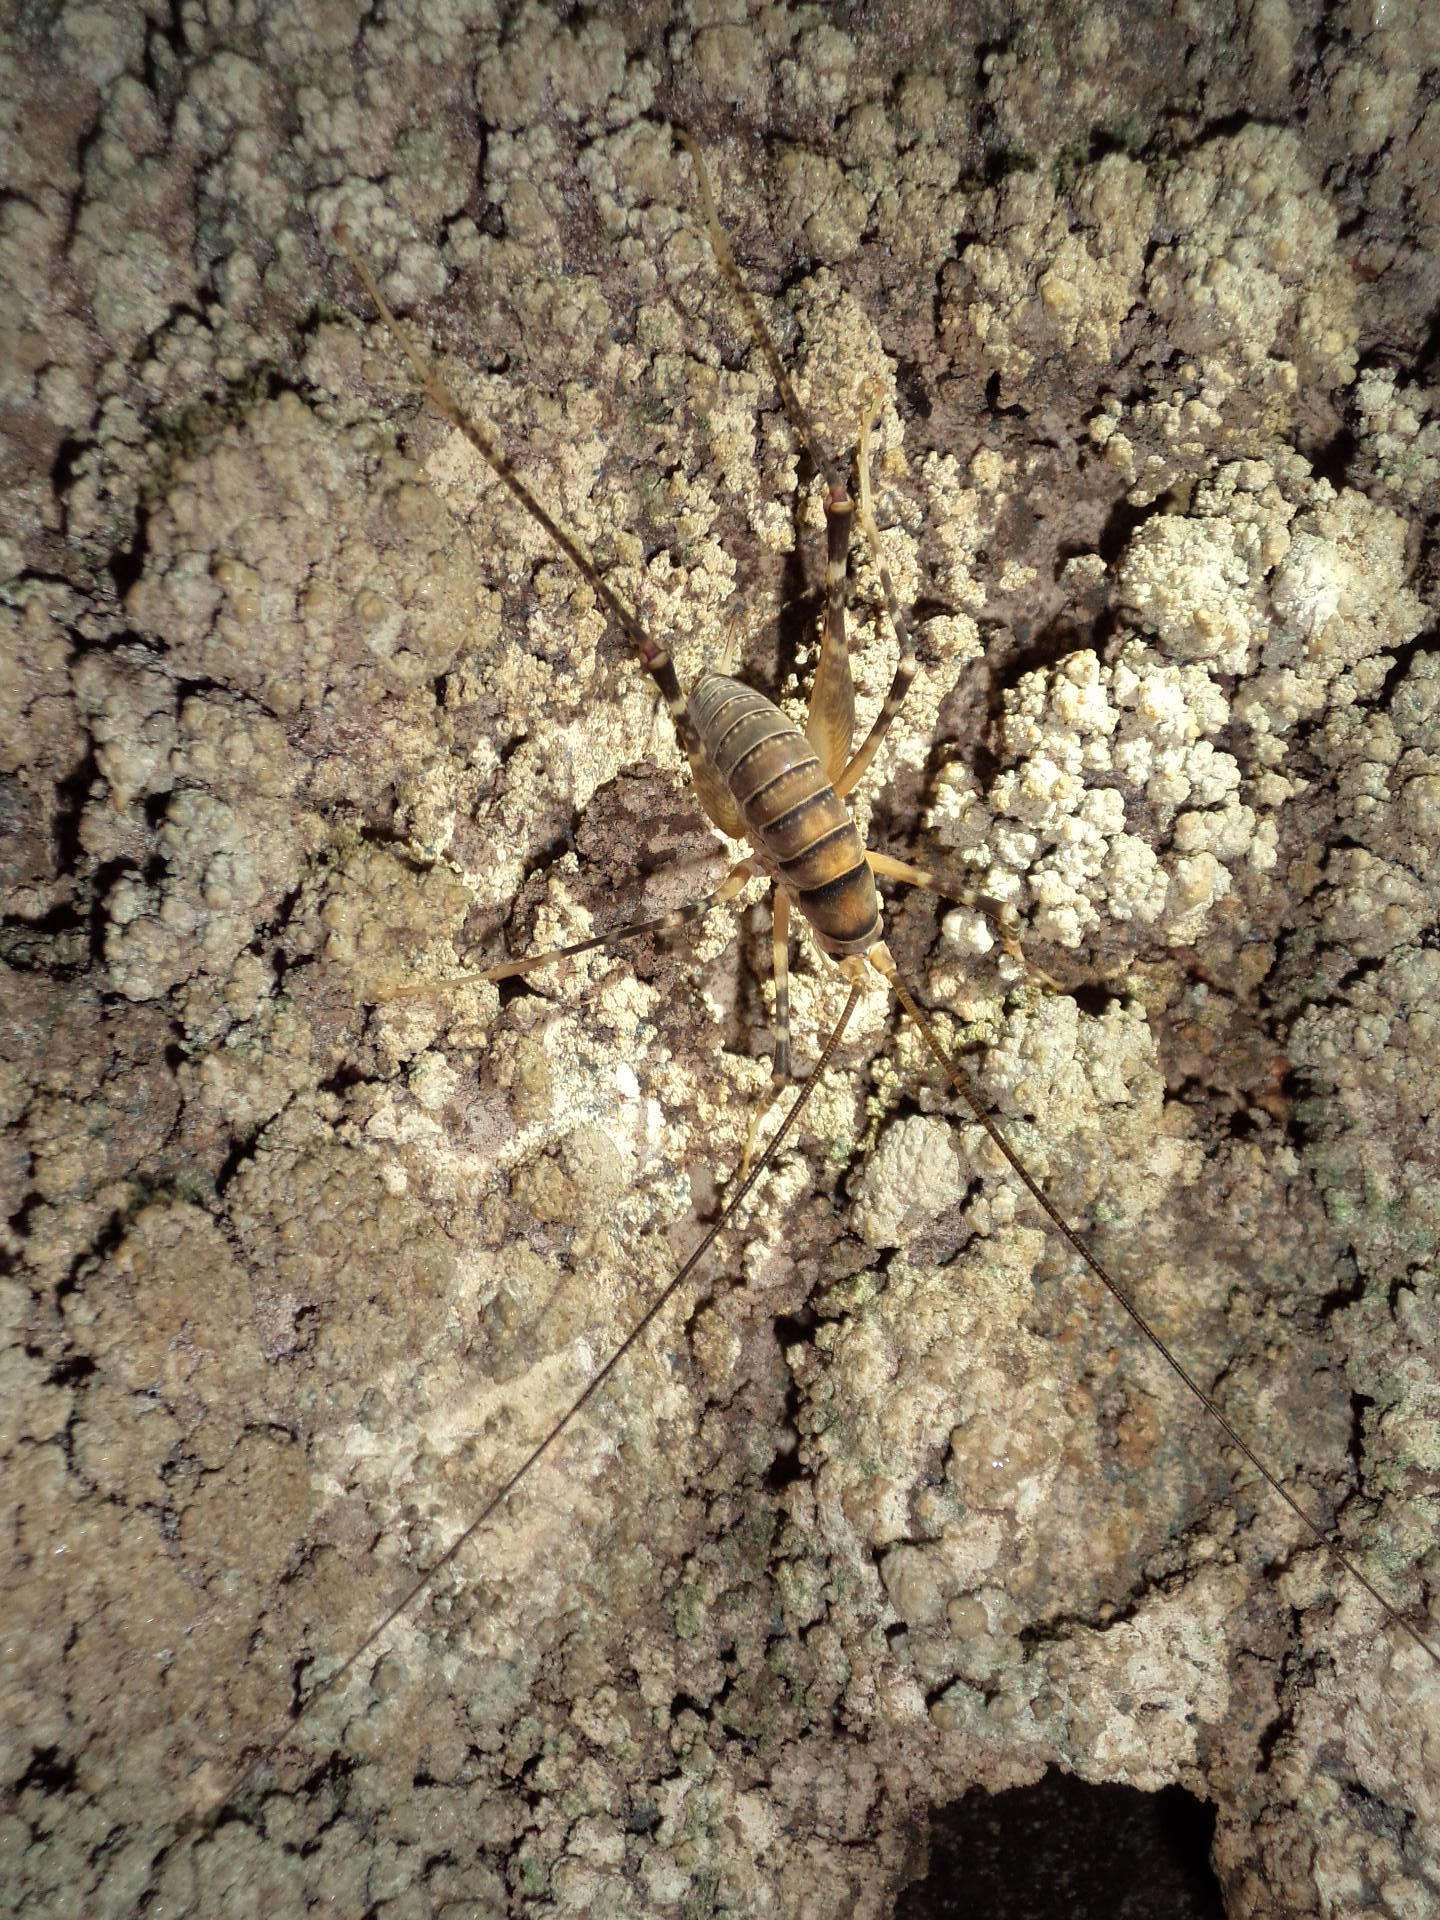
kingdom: Animalia
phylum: Arthropoda
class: Insecta
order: Orthoptera
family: Rhaphidophoridae
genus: Pachyrhamma
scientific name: Pachyrhamma edwardsii
